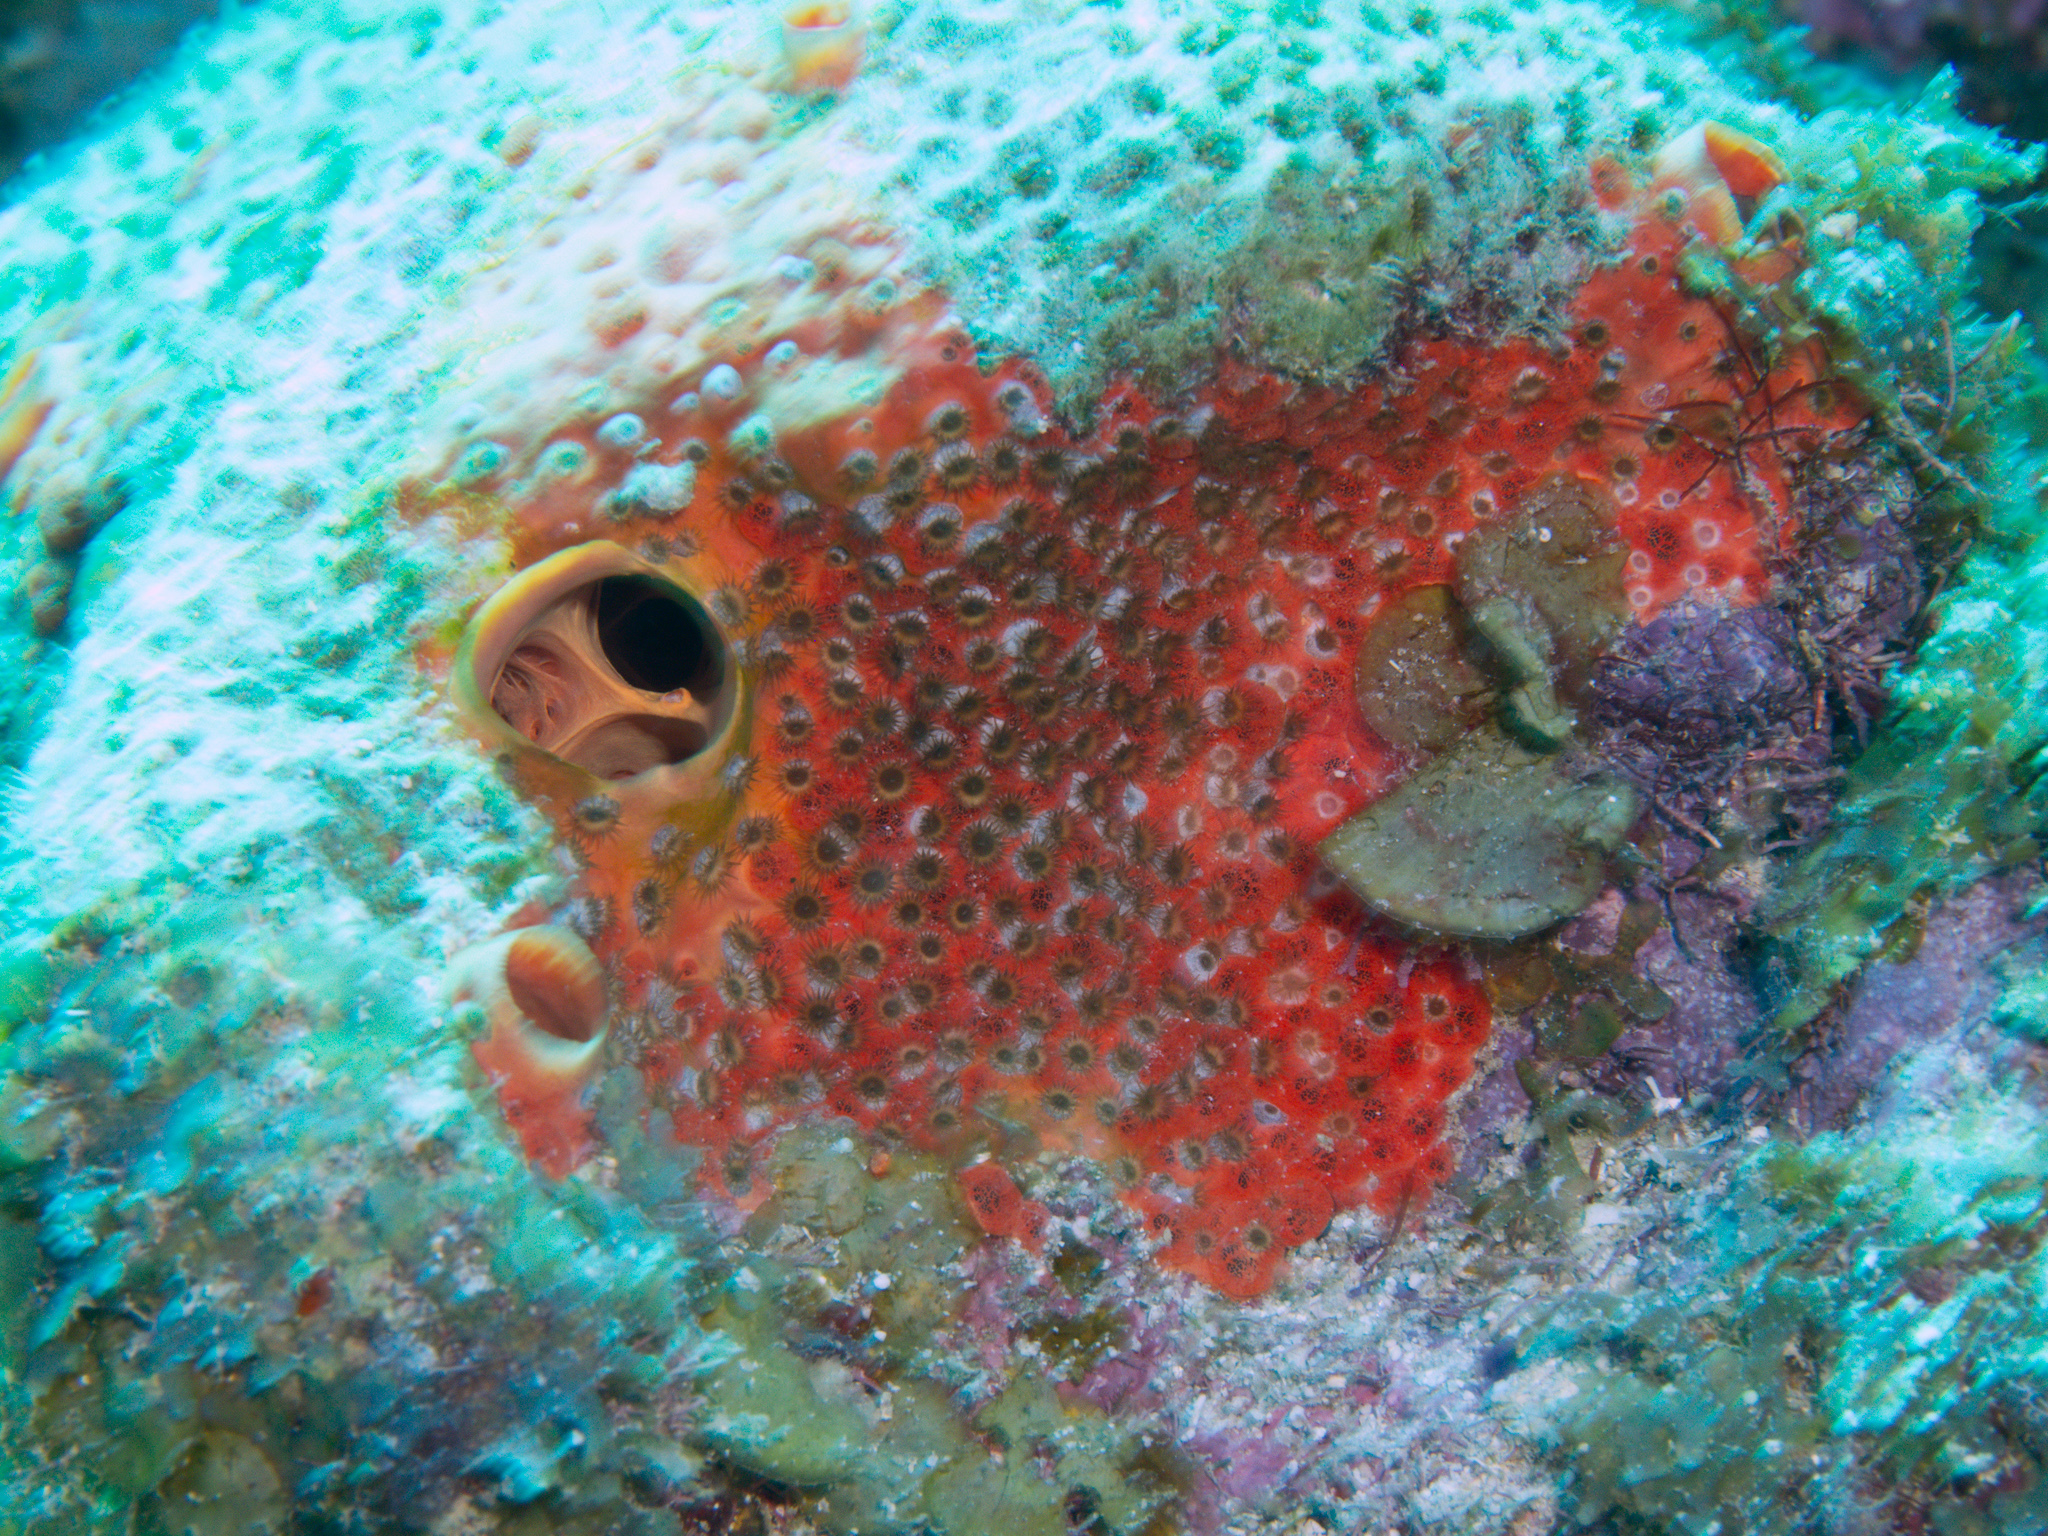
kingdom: Animalia
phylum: Porifera
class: Demospongiae
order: Clionaida
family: Clionaidae
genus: Cliothosa
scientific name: Cliothosa delitrix
